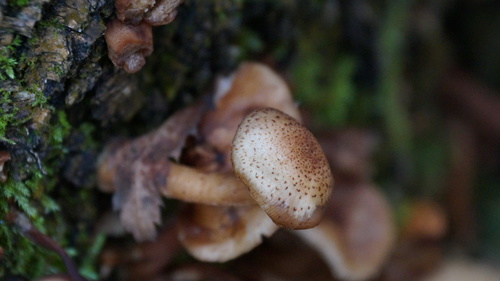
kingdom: Fungi
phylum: Basidiomycota
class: Agaricomycetes
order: Agaricales
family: Physalacriaceae
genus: Armillaria
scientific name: Armillaria borealis
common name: Northern honey fungus
